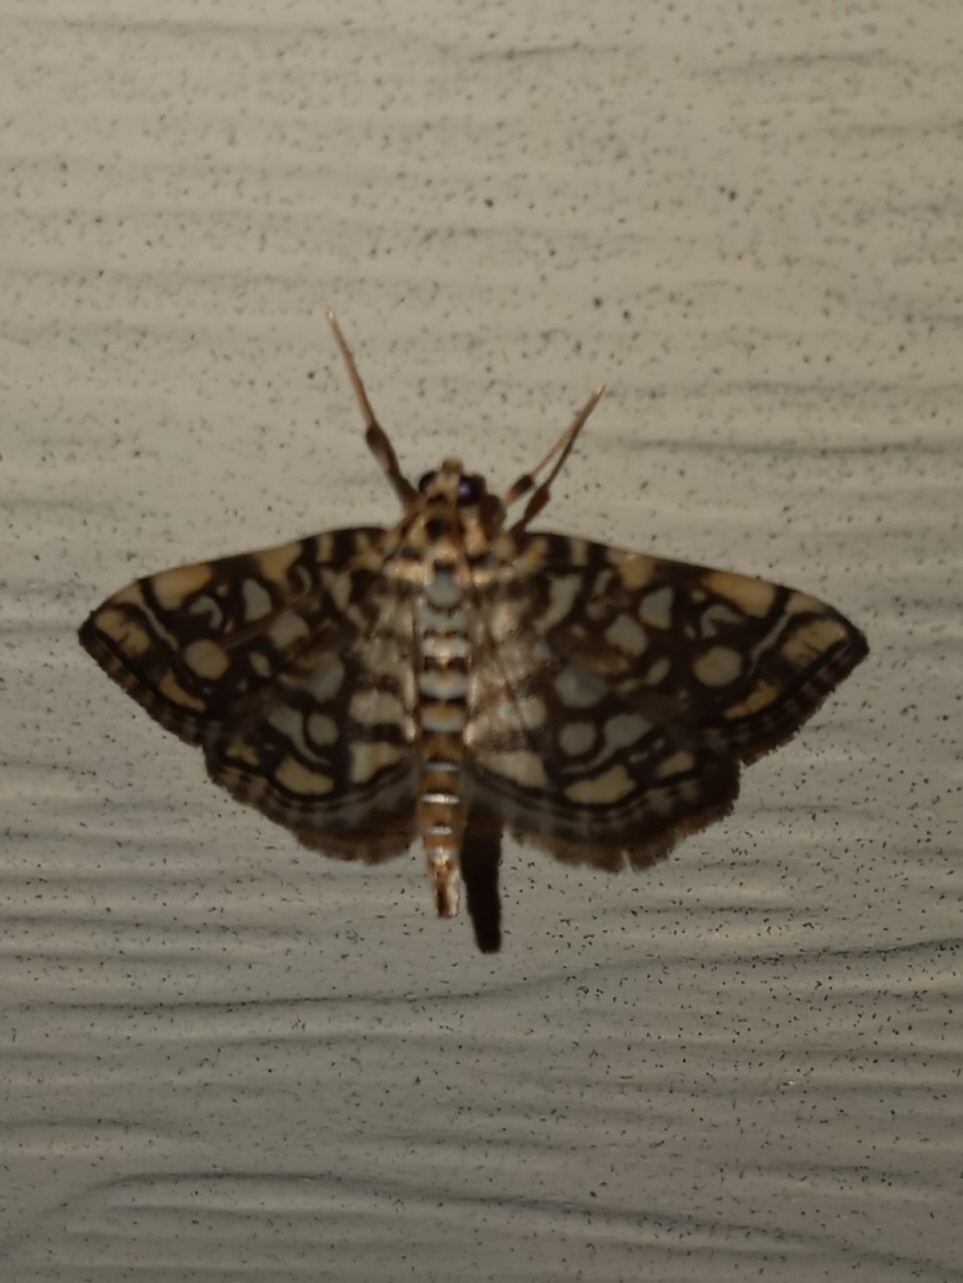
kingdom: Animalia
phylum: Arthropoda
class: Insecta
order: Lepidoptera
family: Crambidae
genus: Lygropia
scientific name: Lygropia rivulalis
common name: Bog lygropia moth
